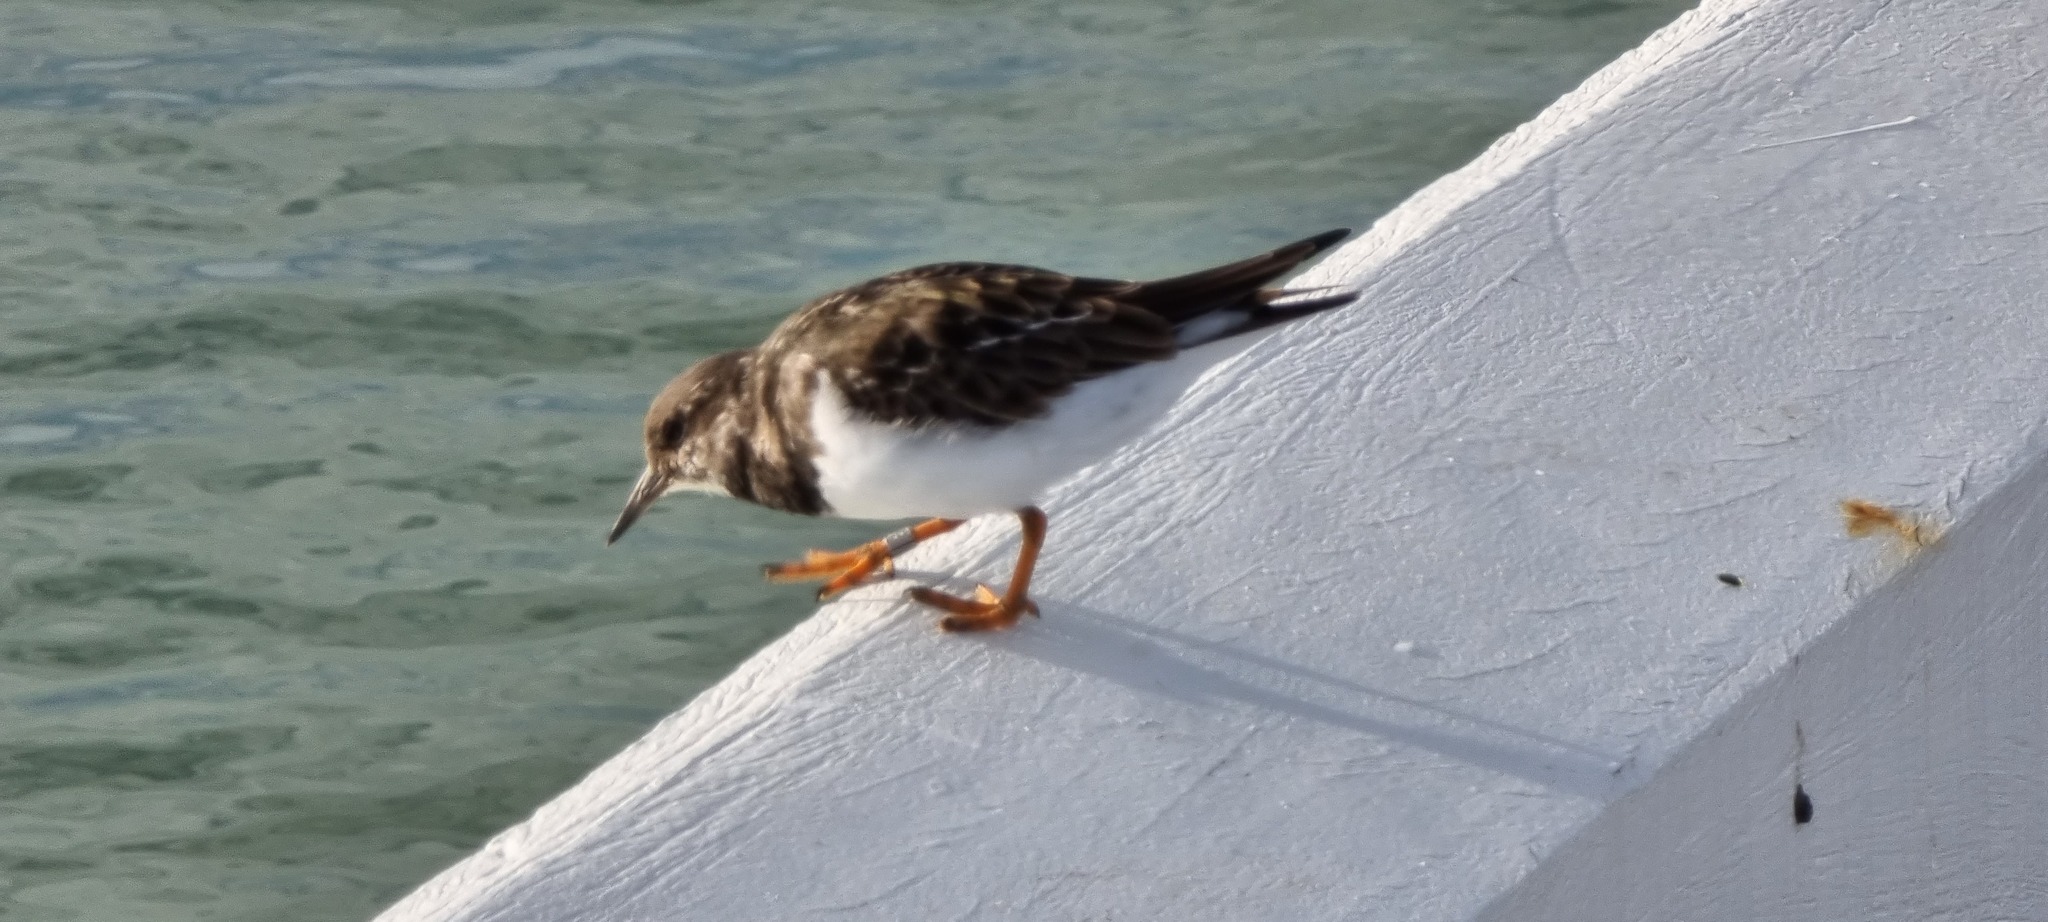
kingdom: Animalia
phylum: Chordata
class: Aves
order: Charadriiformes
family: Scolopacidae
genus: Arenaria
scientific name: Arenaria interpres
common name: Ruddy turnstone
